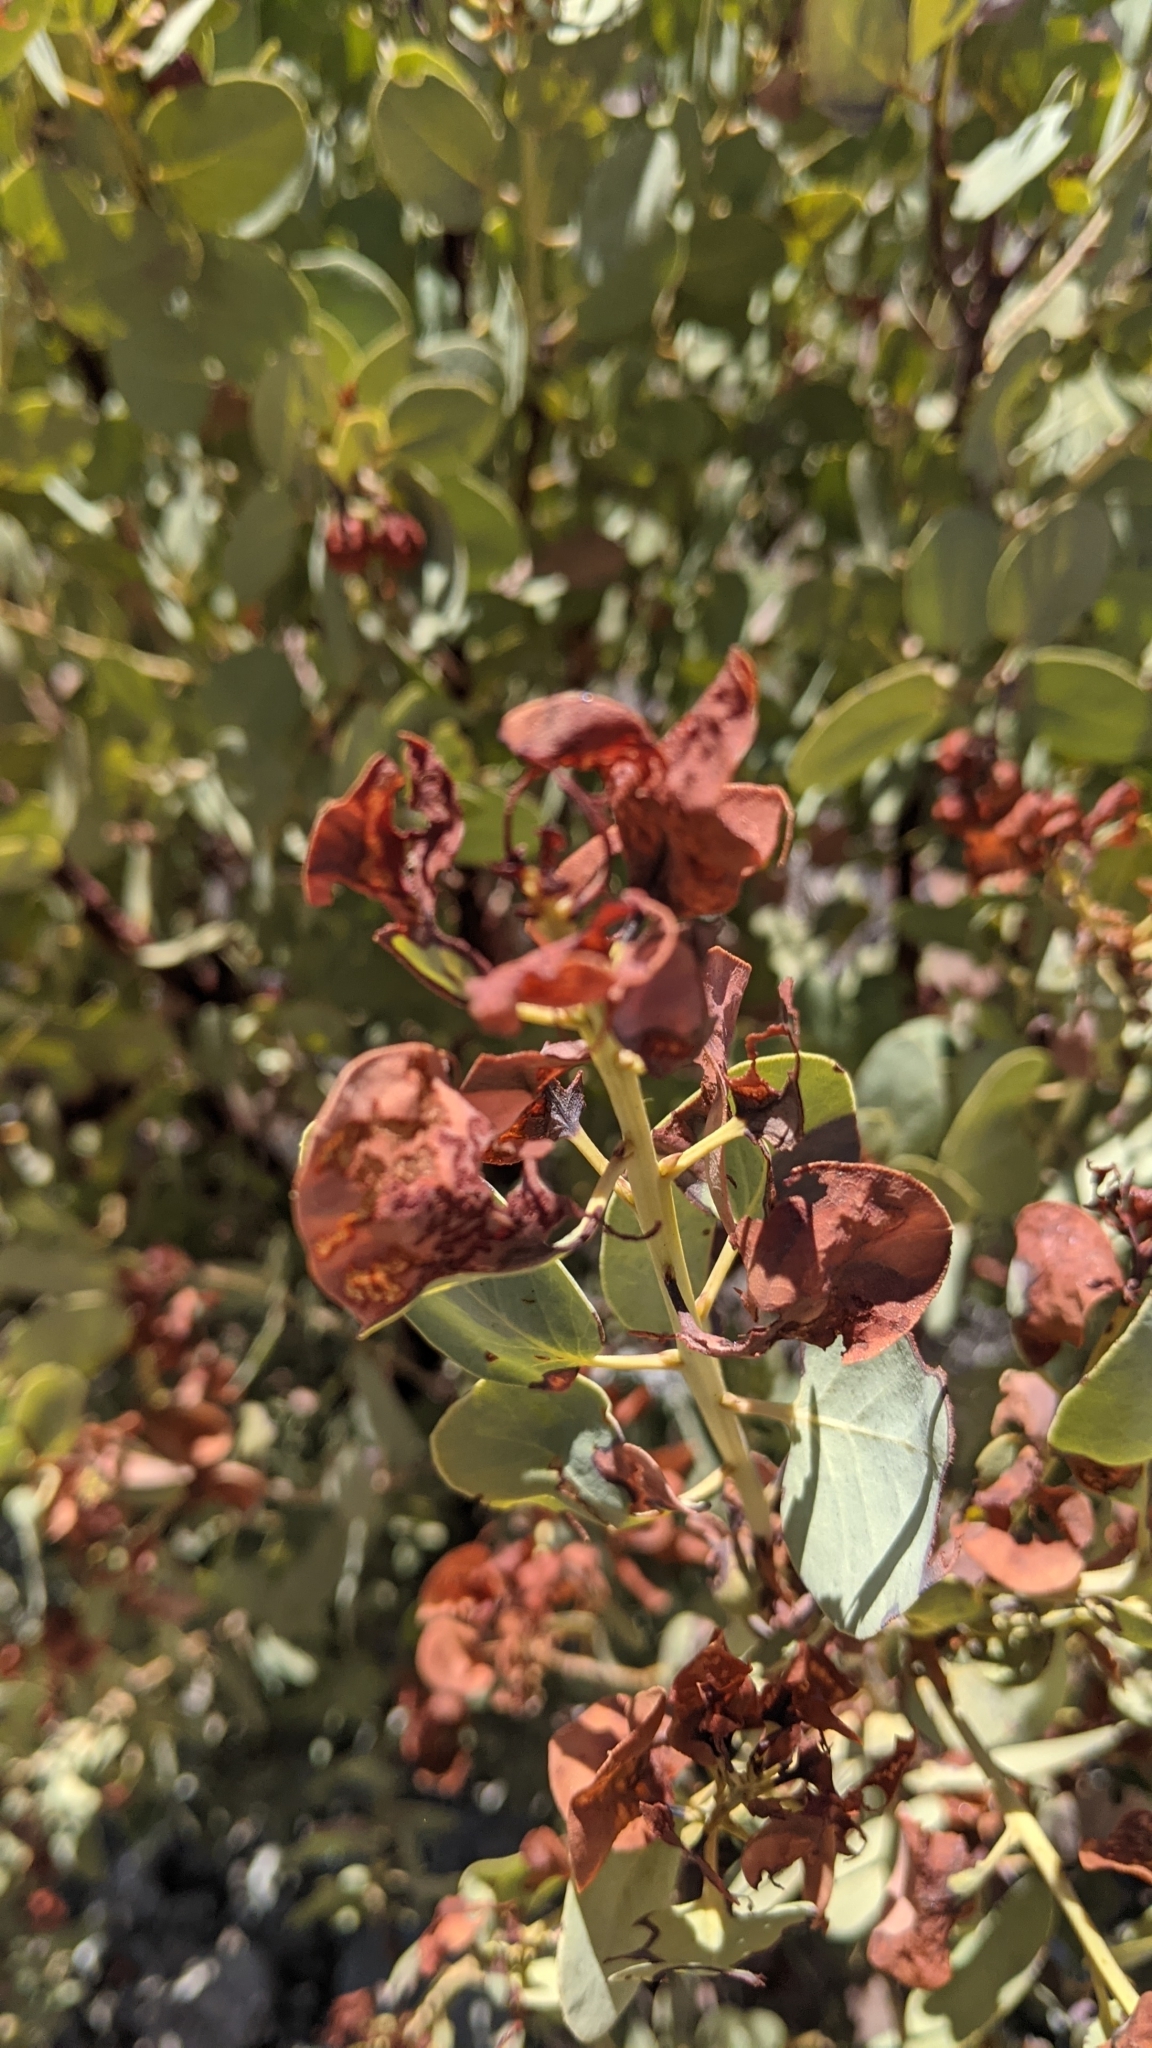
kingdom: Plantae
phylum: Tracheophyta
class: Magnoliopsida
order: Ericales
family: Ericaceae
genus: Arctostaphylos
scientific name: Arctostaphylos glauca
